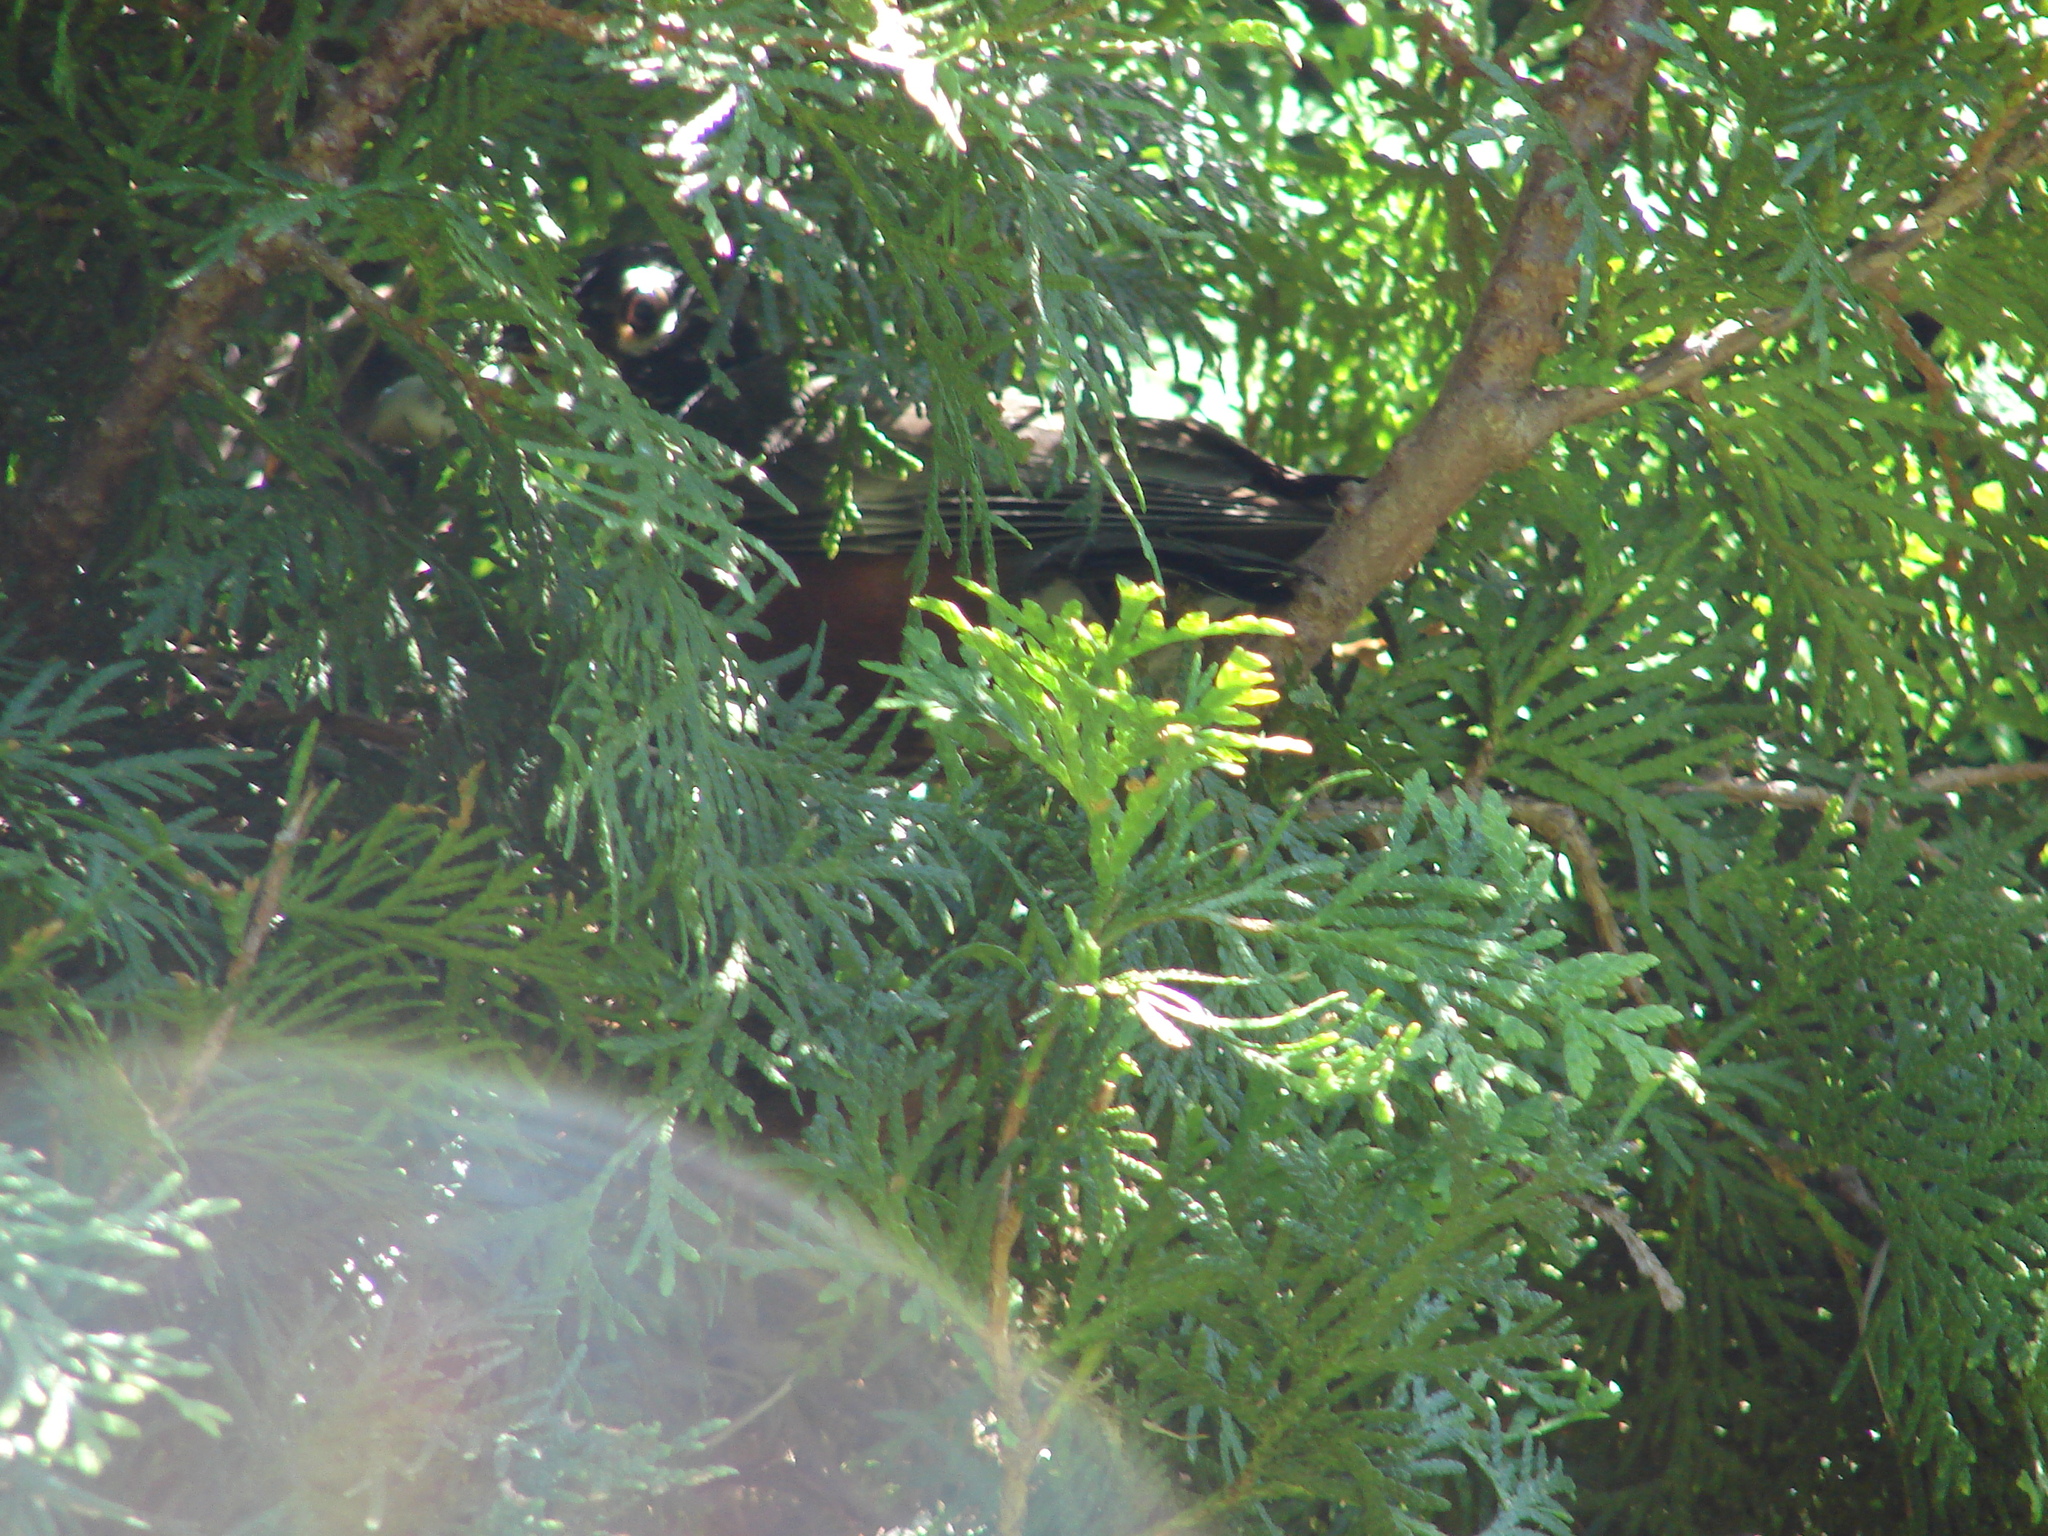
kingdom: Animalia
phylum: Chordata
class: Aves
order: Passeriformes
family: Turdidae
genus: Turdus
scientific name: Turdus migratorius
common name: American robin
